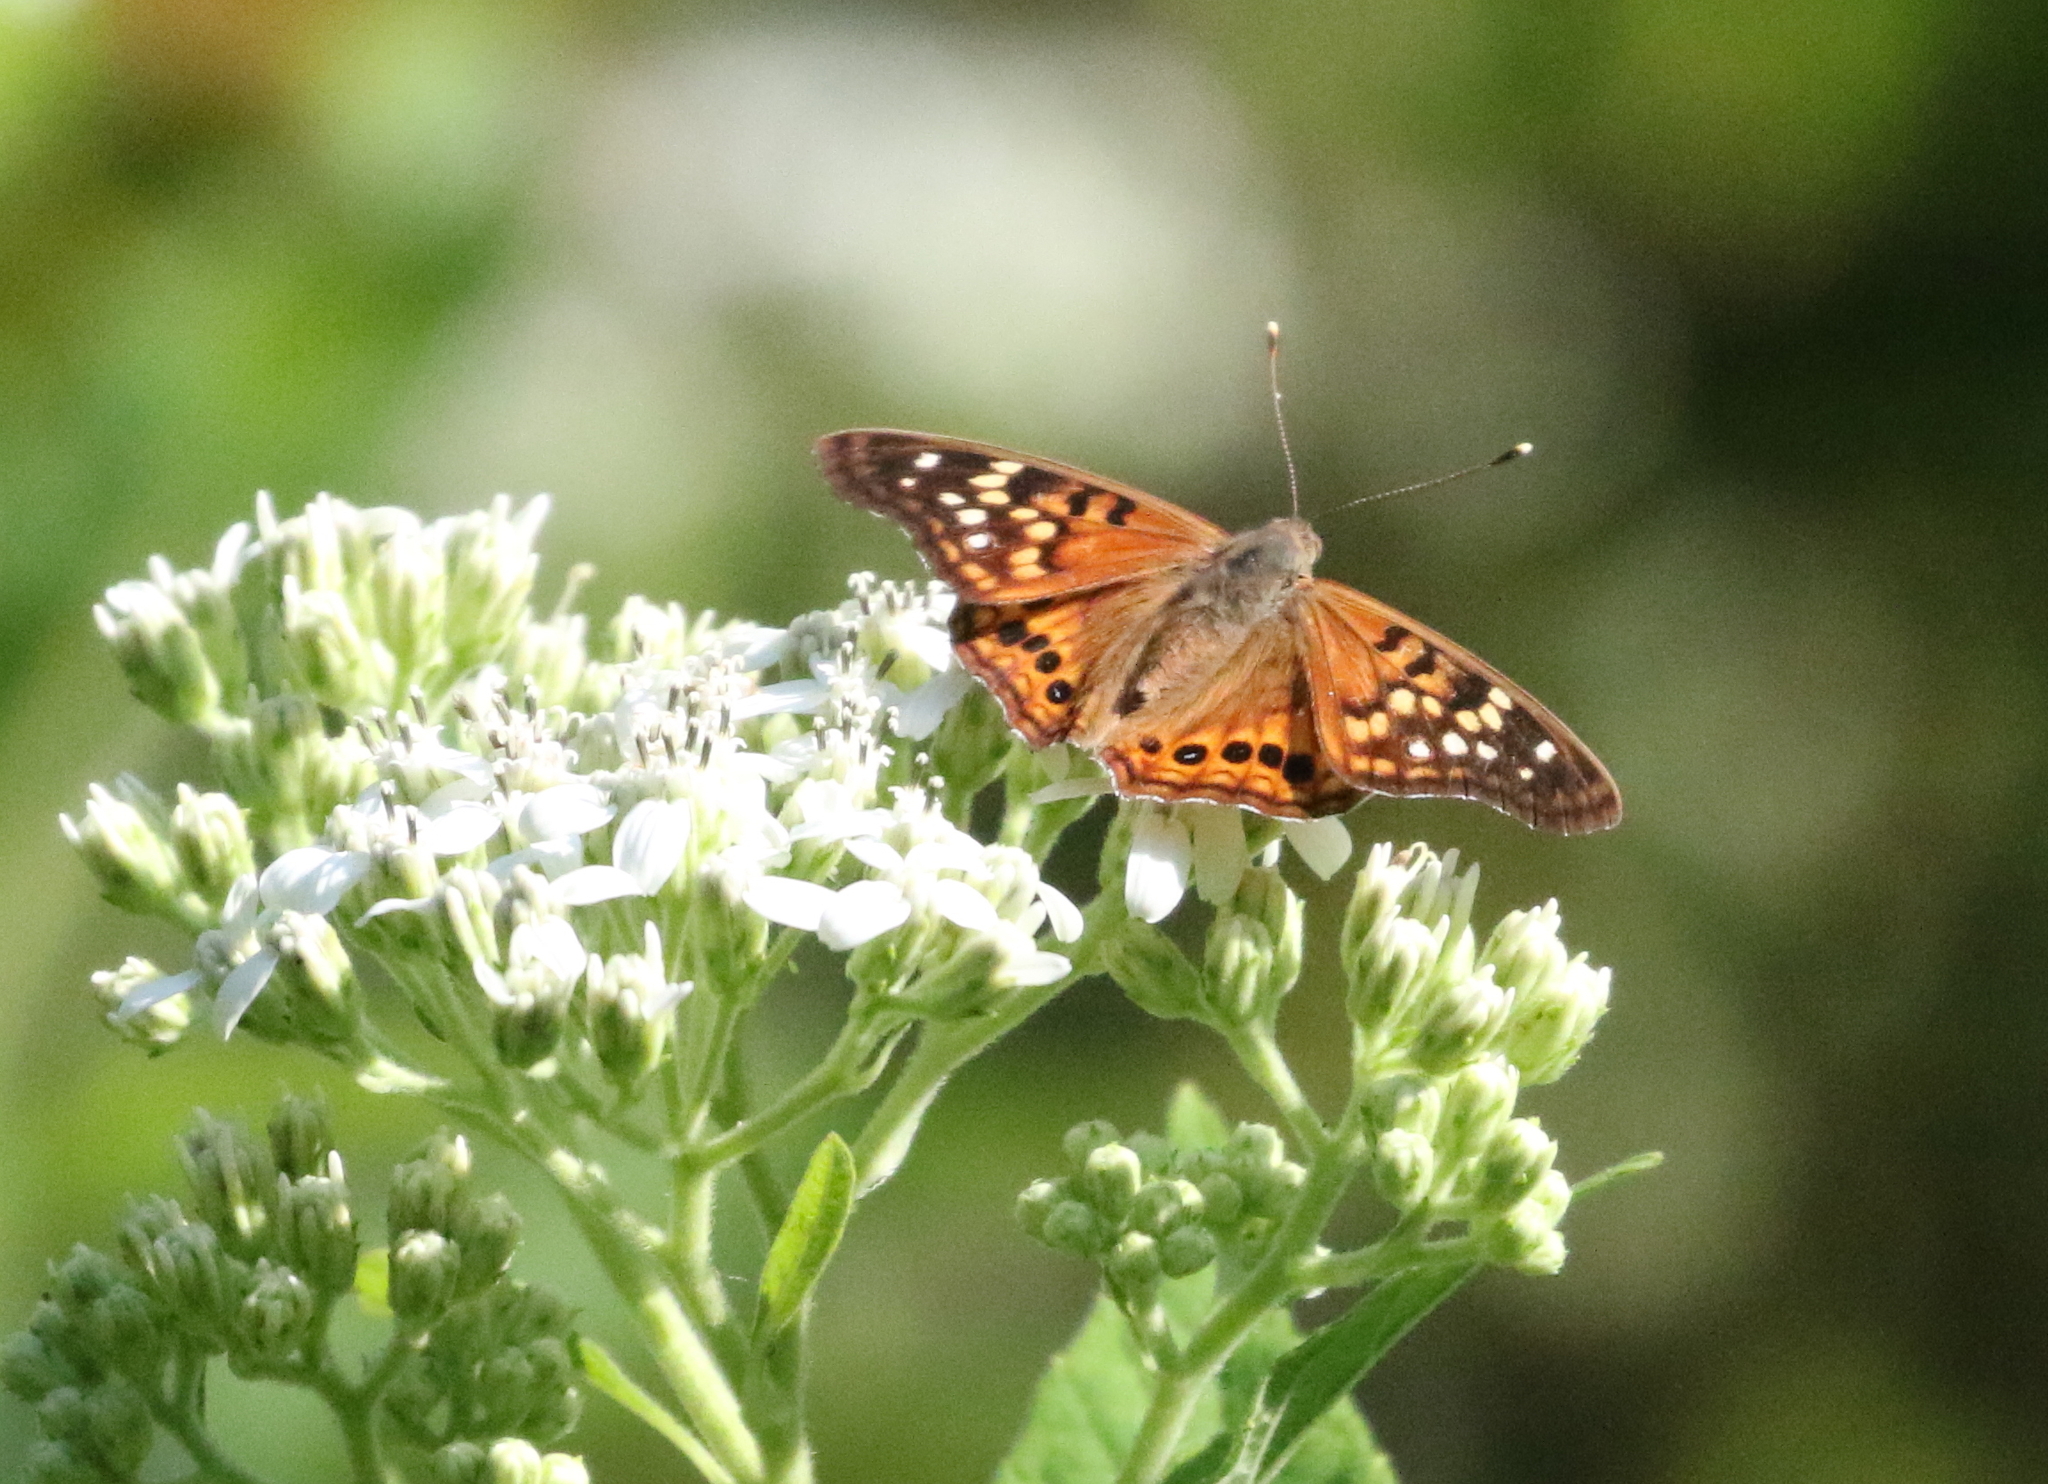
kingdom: Animalia
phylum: Arthropoda
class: Insecta
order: Lepidoptera
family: Nymphalidae
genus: Asterocampa
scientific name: Asterocampa clyton
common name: Tawny emperor
